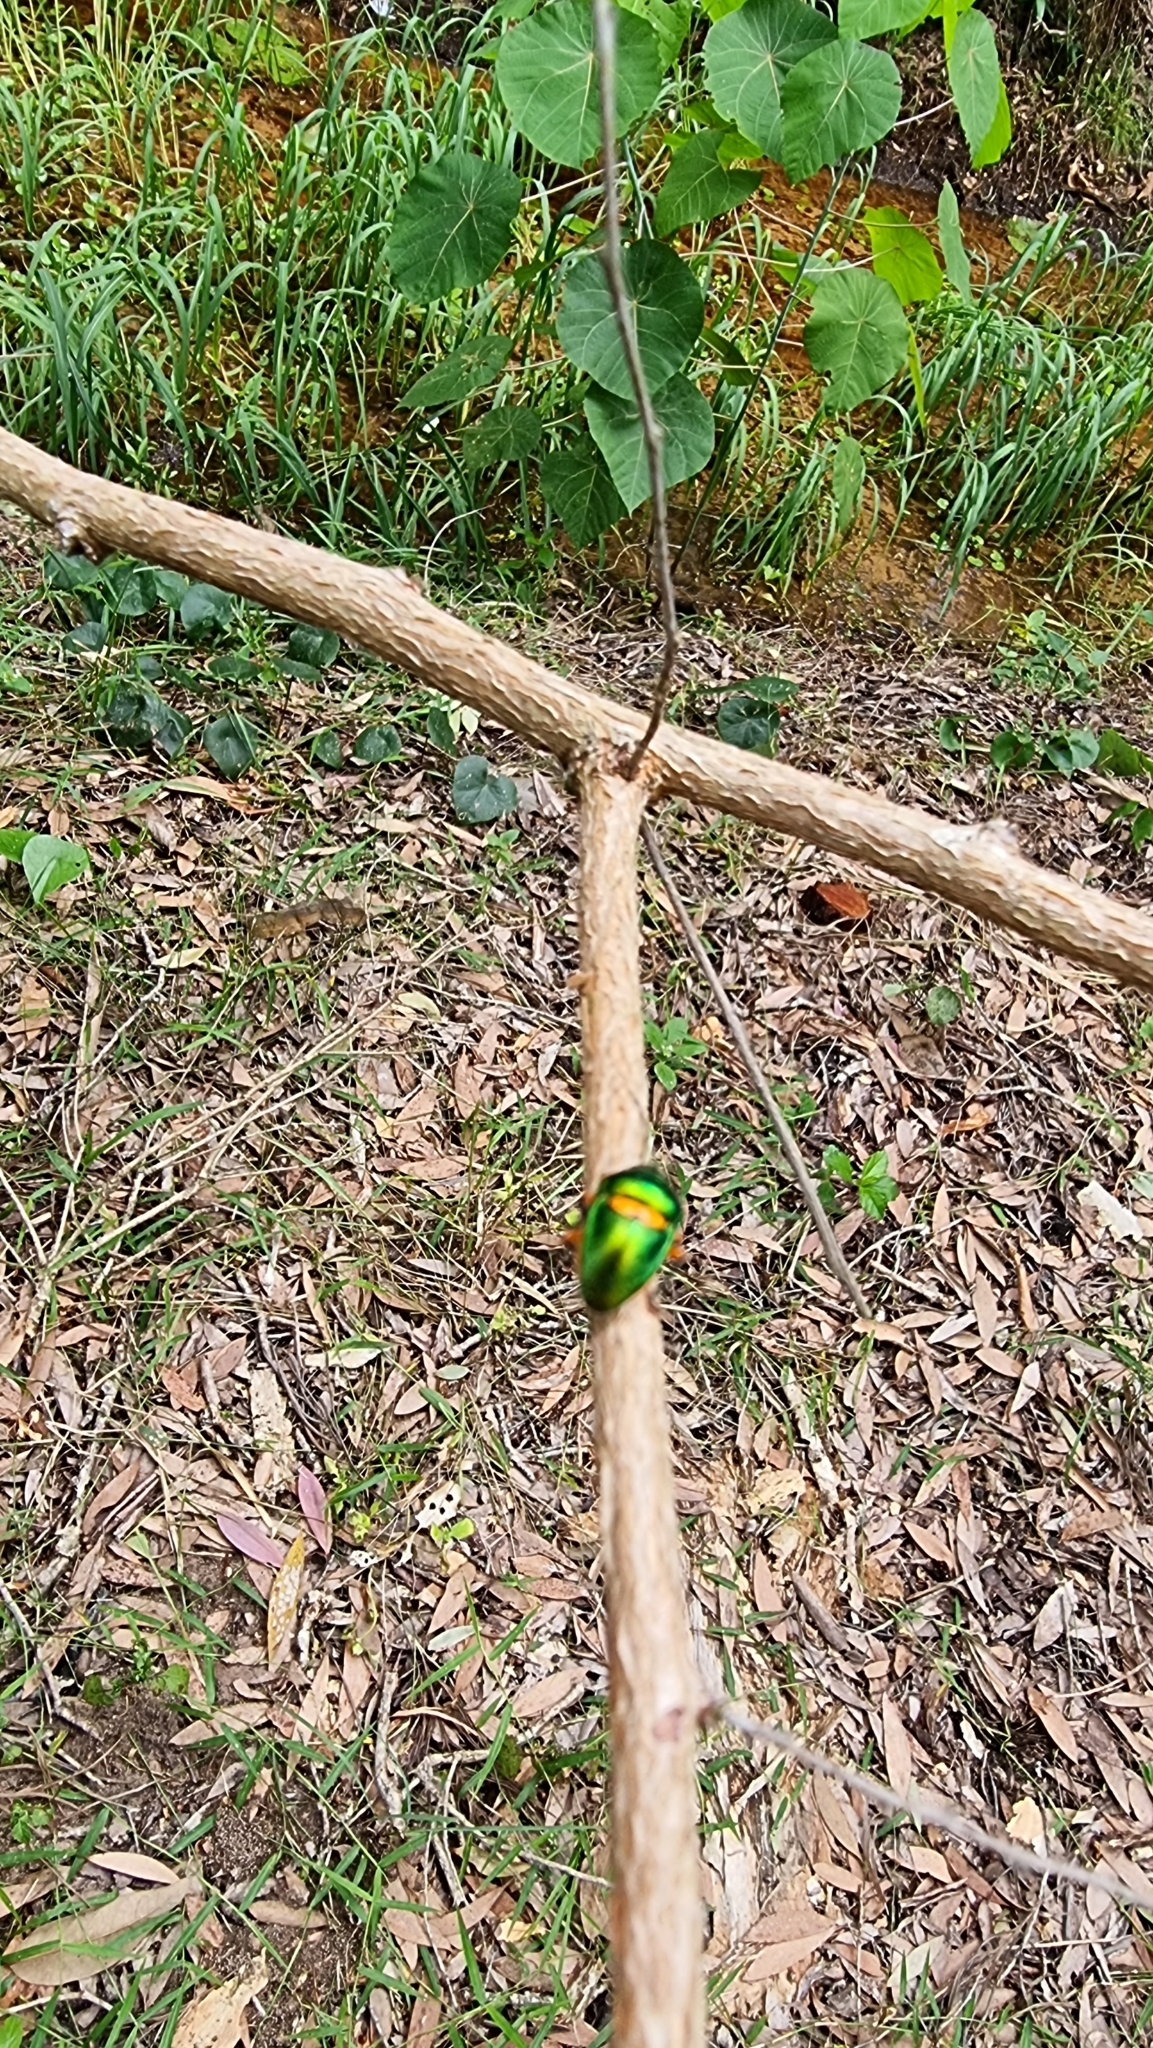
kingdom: Animalia
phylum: Arthropoda
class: Insecta
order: Hemiptera
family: Scutelleridae
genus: Lampromicra
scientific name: Lampromicra senator
